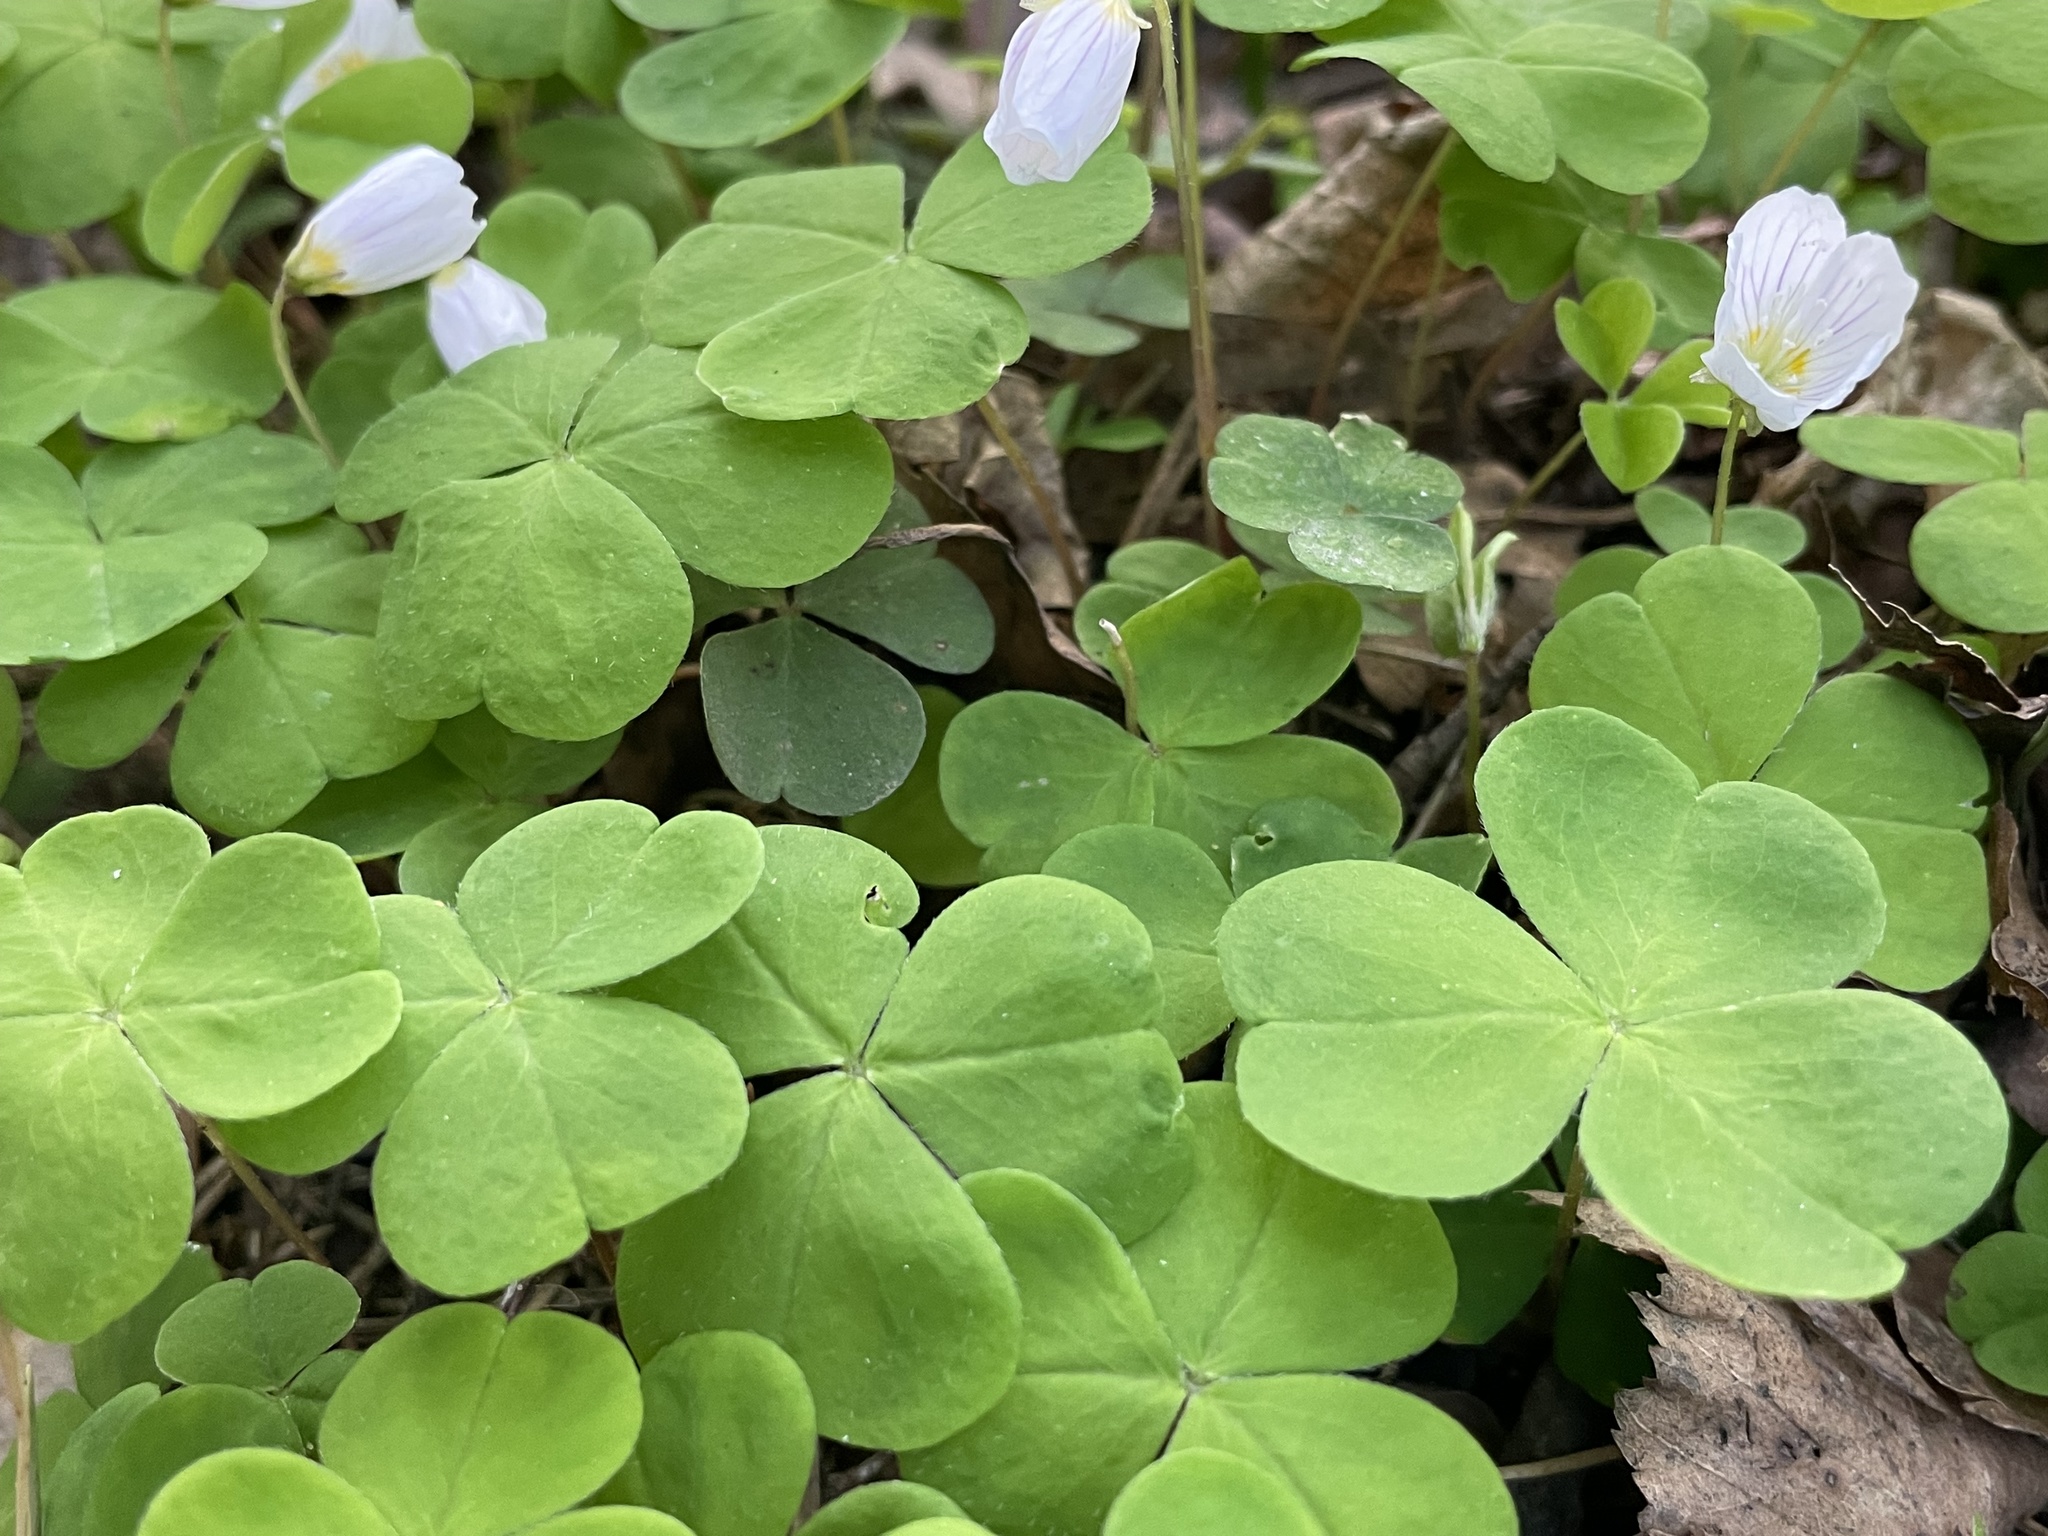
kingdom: Plantae
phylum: Tracheophyta
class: Magnoliopsida
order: Oxalidales
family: Oxalidaceae
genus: Oxalis
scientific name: Oxalis acetosella
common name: Wood-sorrel
